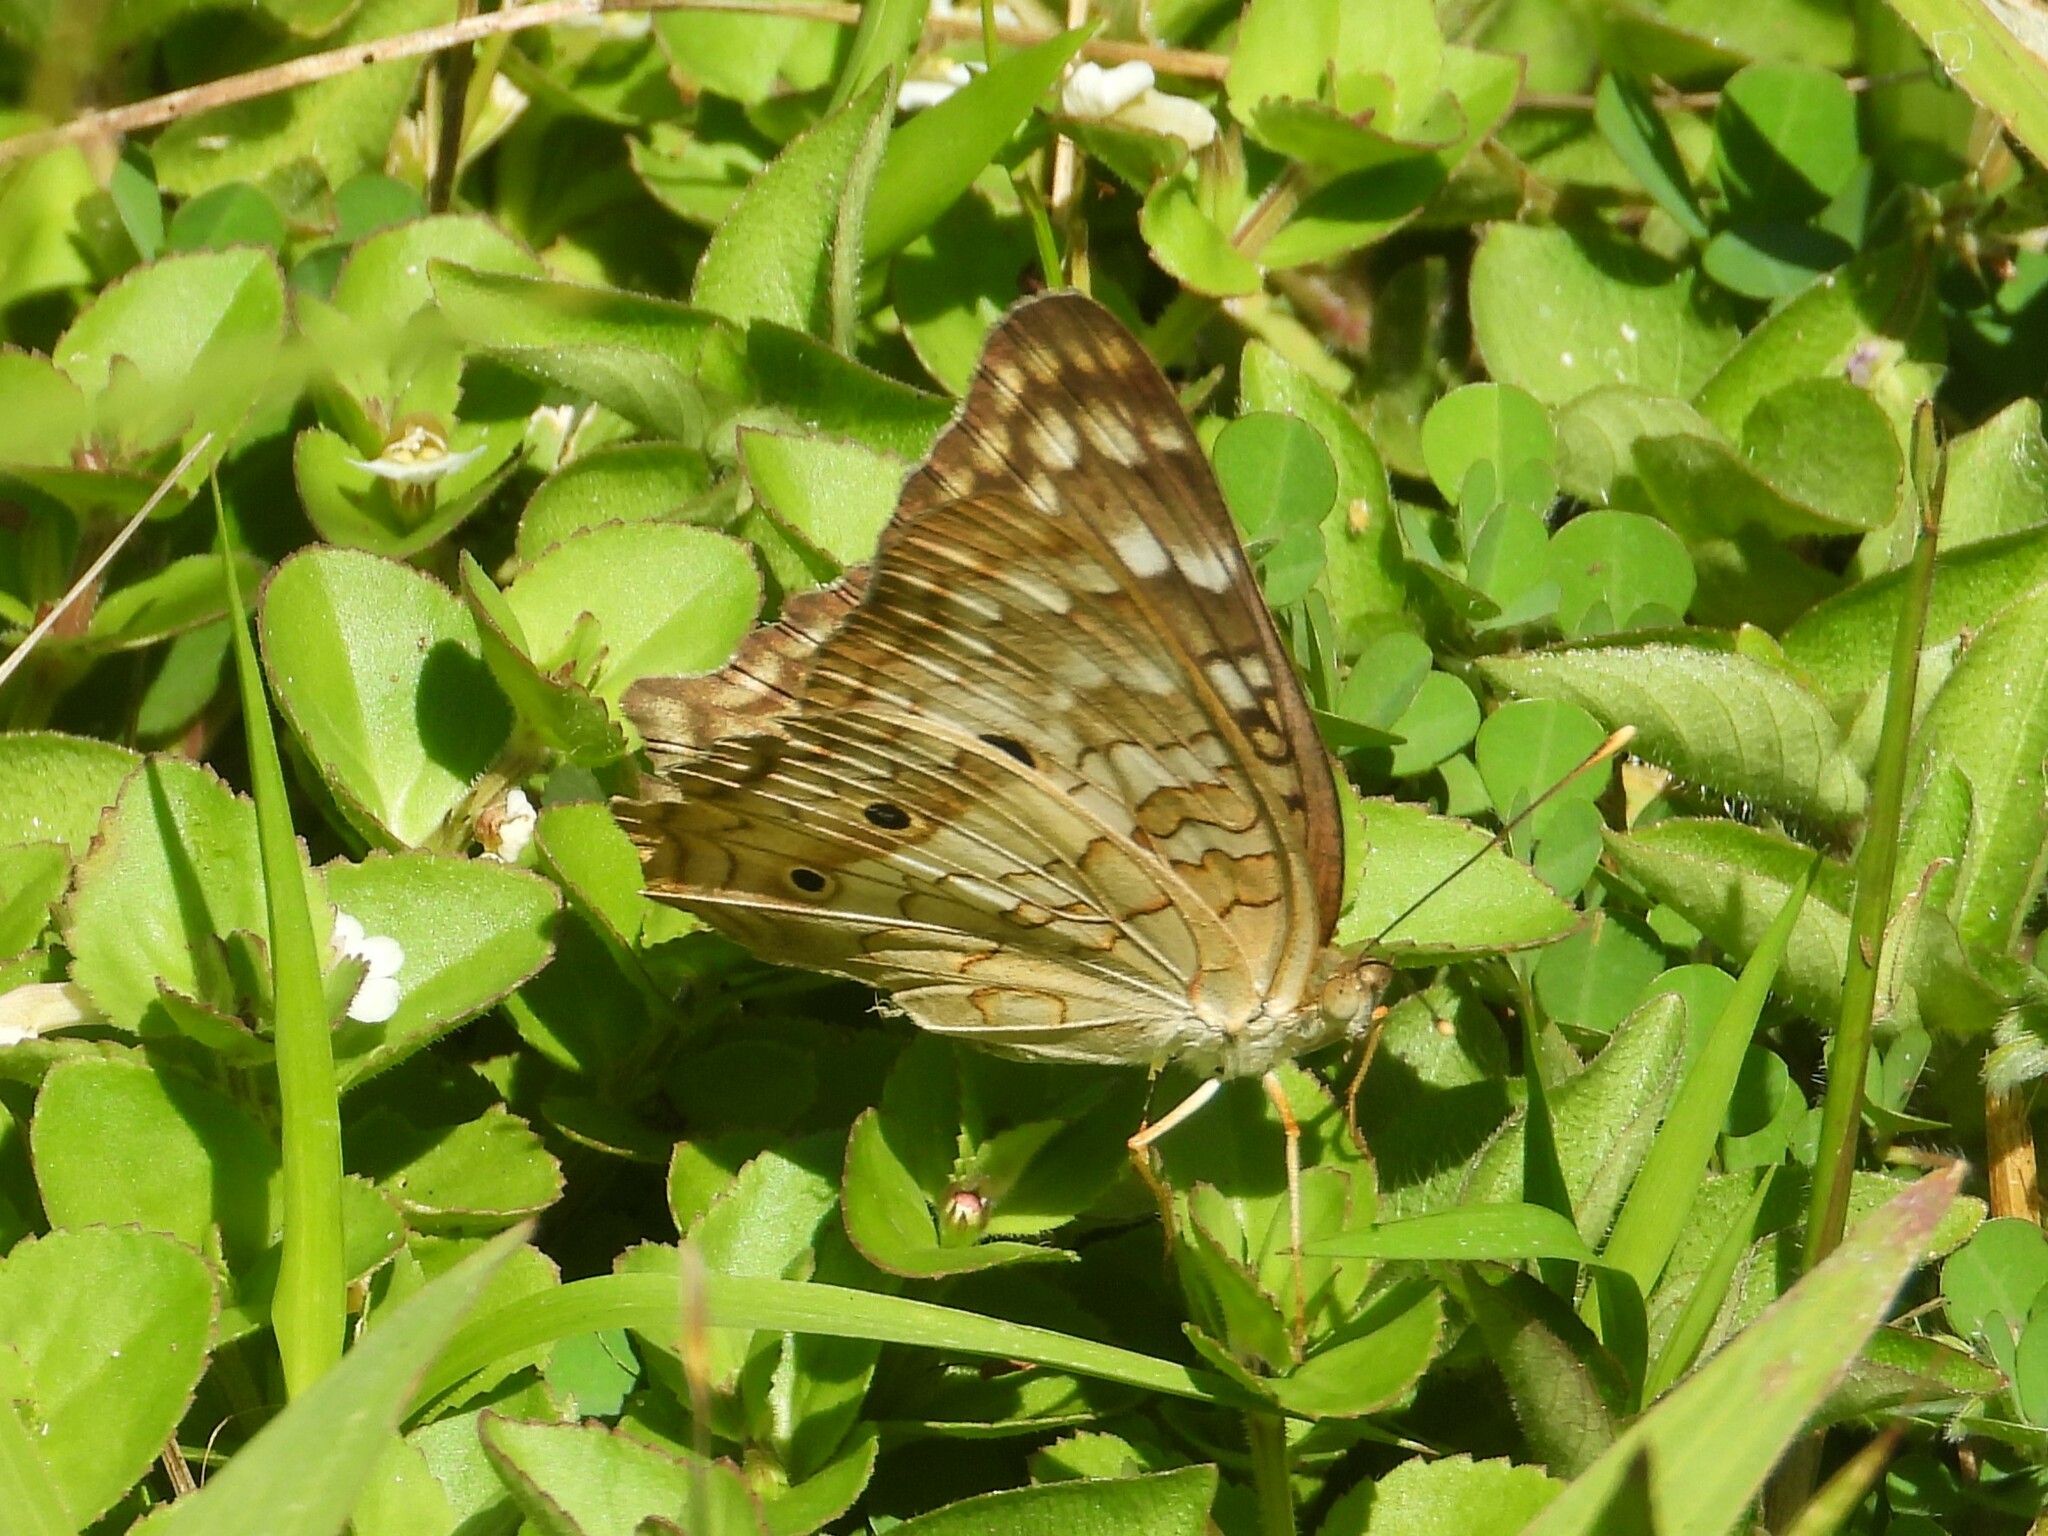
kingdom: Animalia
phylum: Arthropoda
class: Insecta
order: Lepidoptera
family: Nymphalidae
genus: Anartia
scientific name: Anartia jatrophae
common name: White peacock
